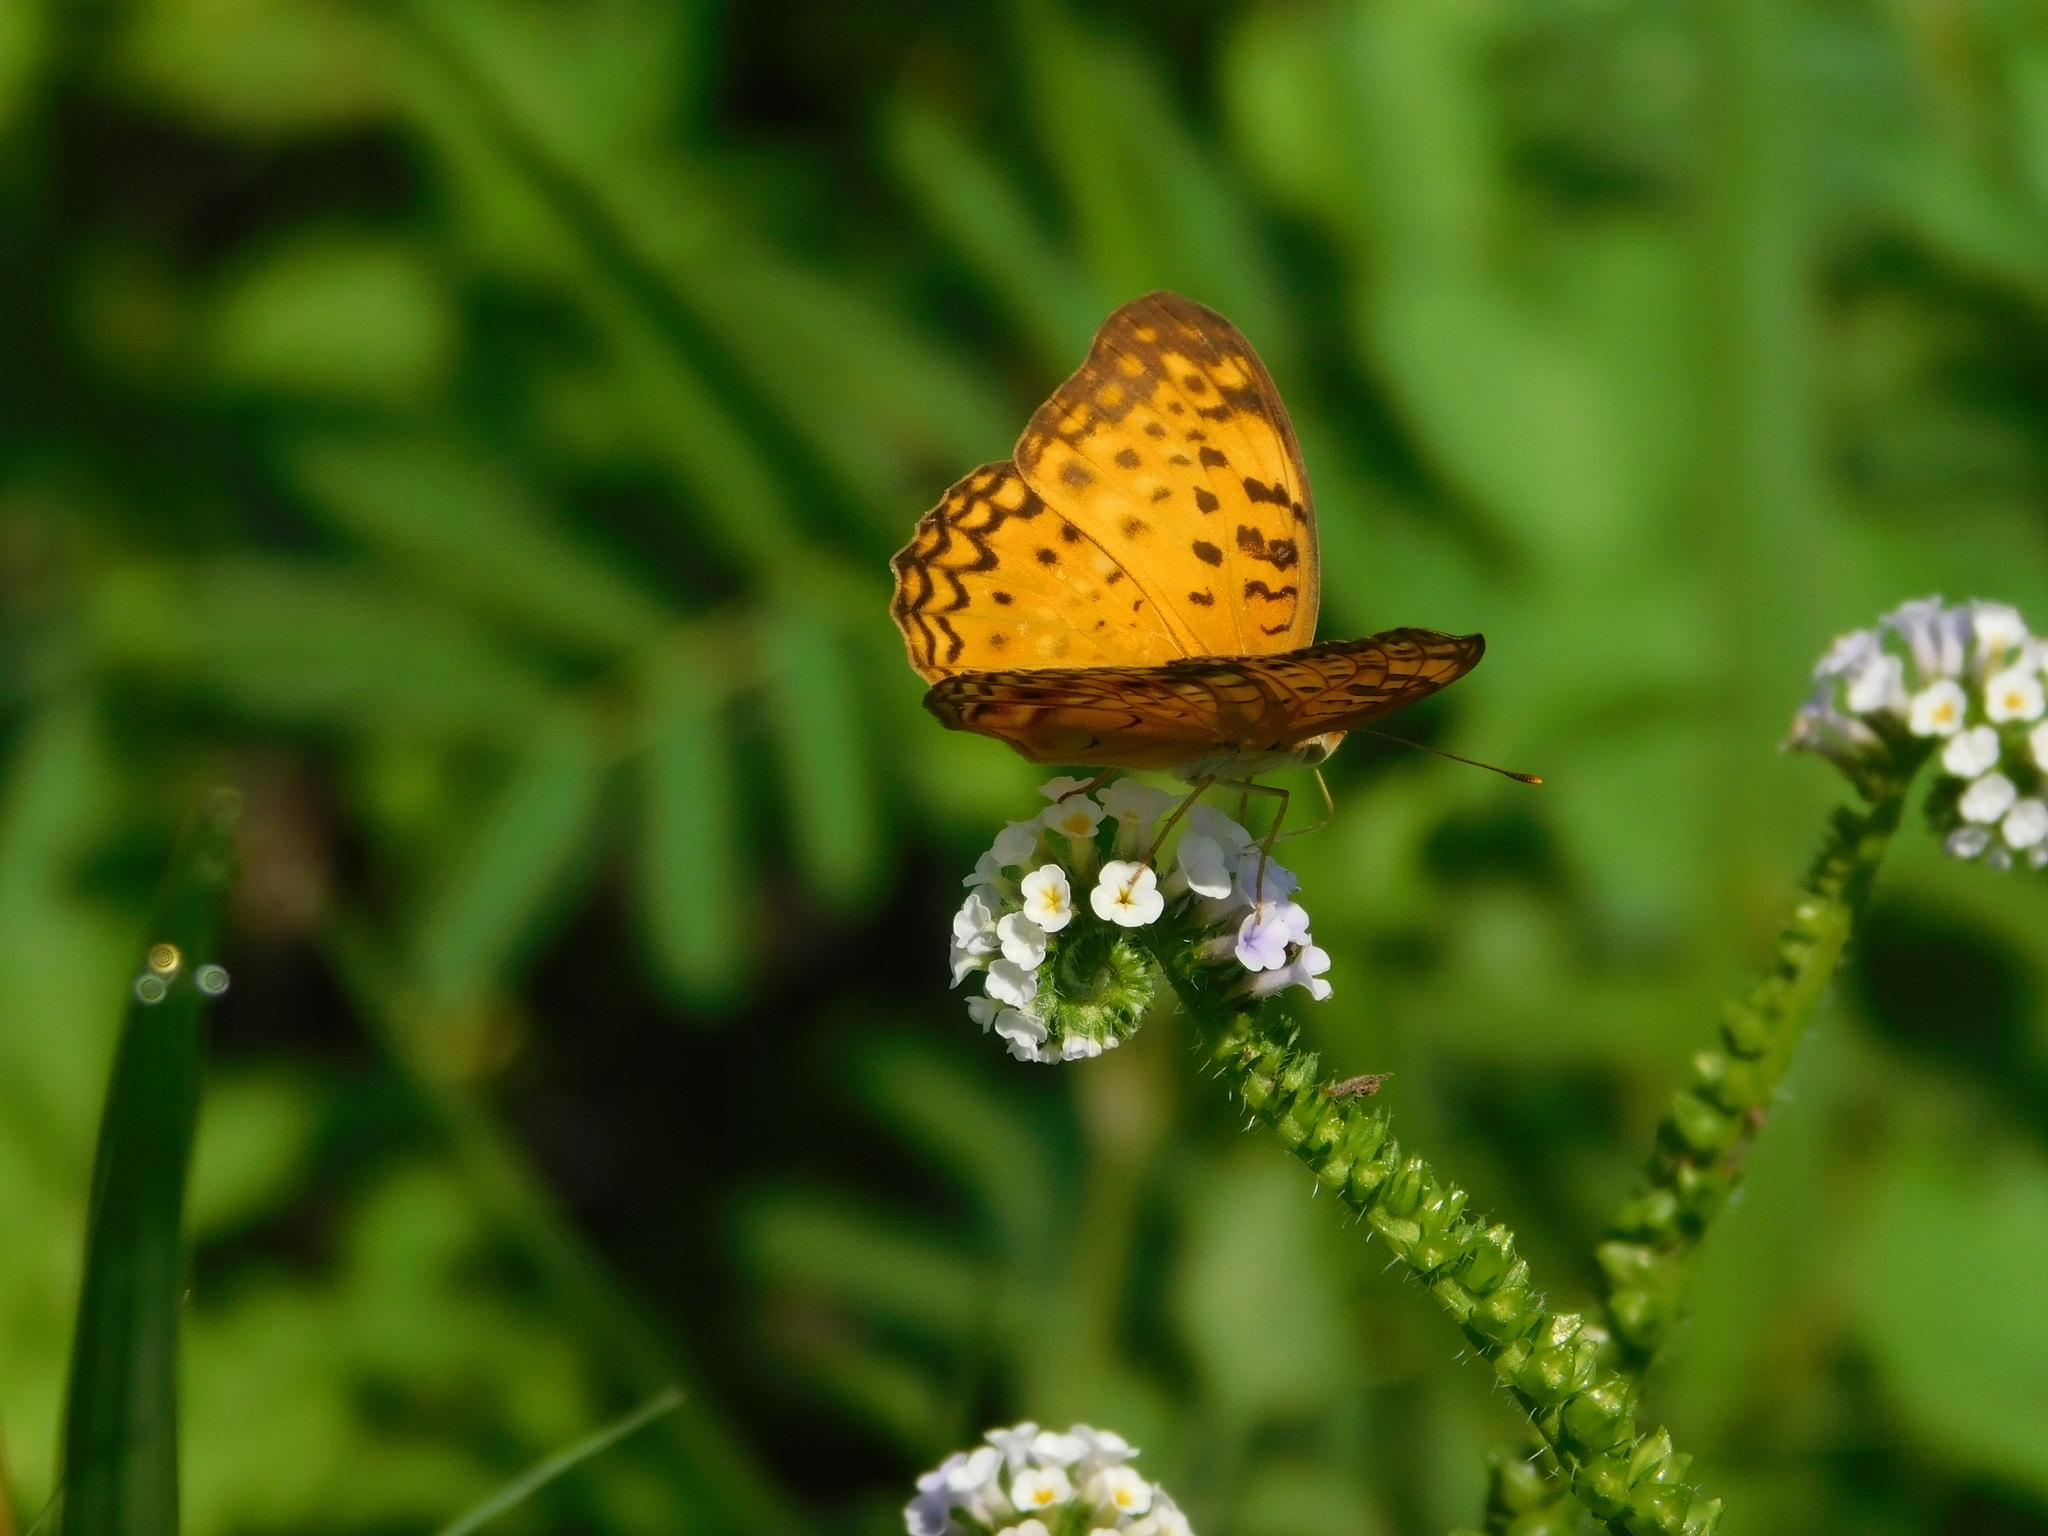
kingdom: Animalia
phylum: Arthropoda
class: Insecta
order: Lepidoptera
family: Nymphalidae
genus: Phalanta
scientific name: Phalanta phalantha
